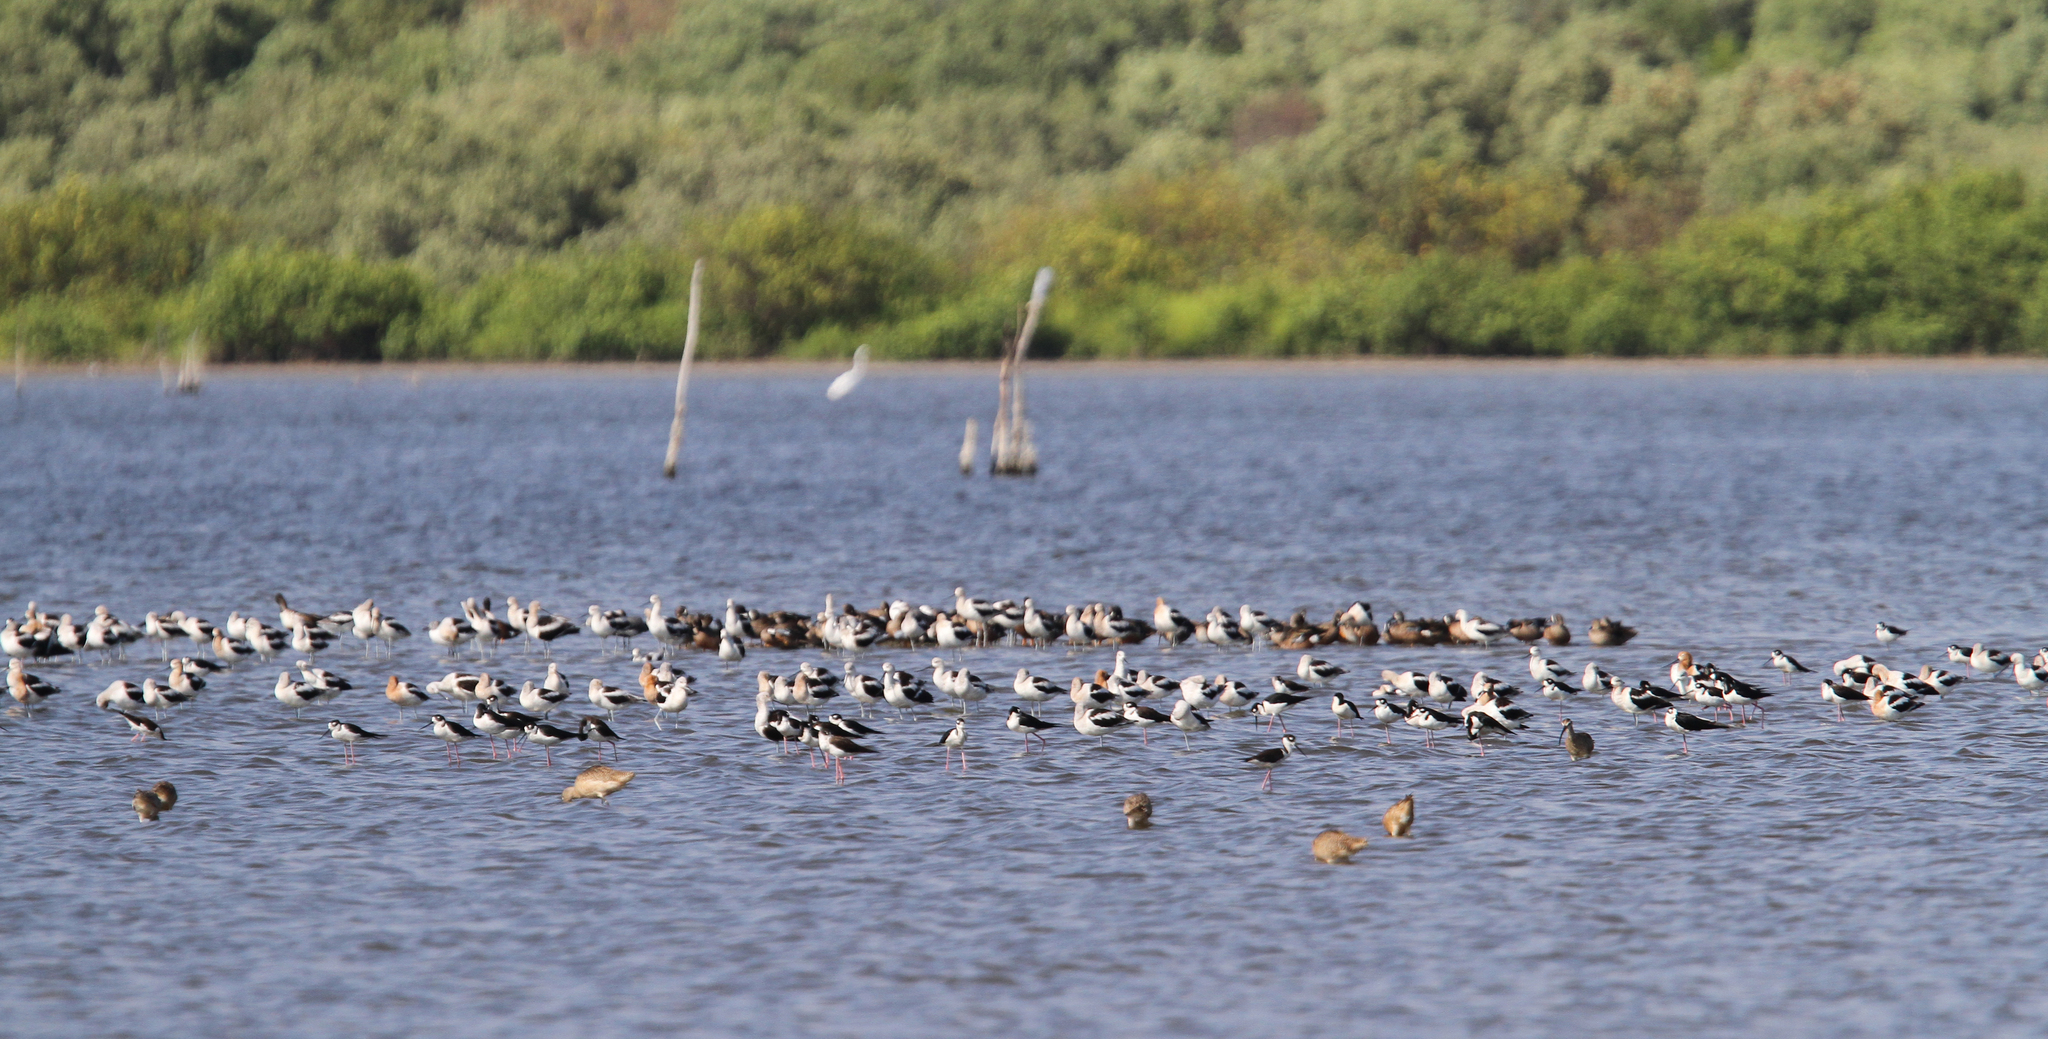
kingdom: Animalia
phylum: Chordata
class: Aves
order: Charadriiformes
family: Recurvirostridae
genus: Himantopus
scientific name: Himantopus mexicanus
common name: Black-necked stilt
